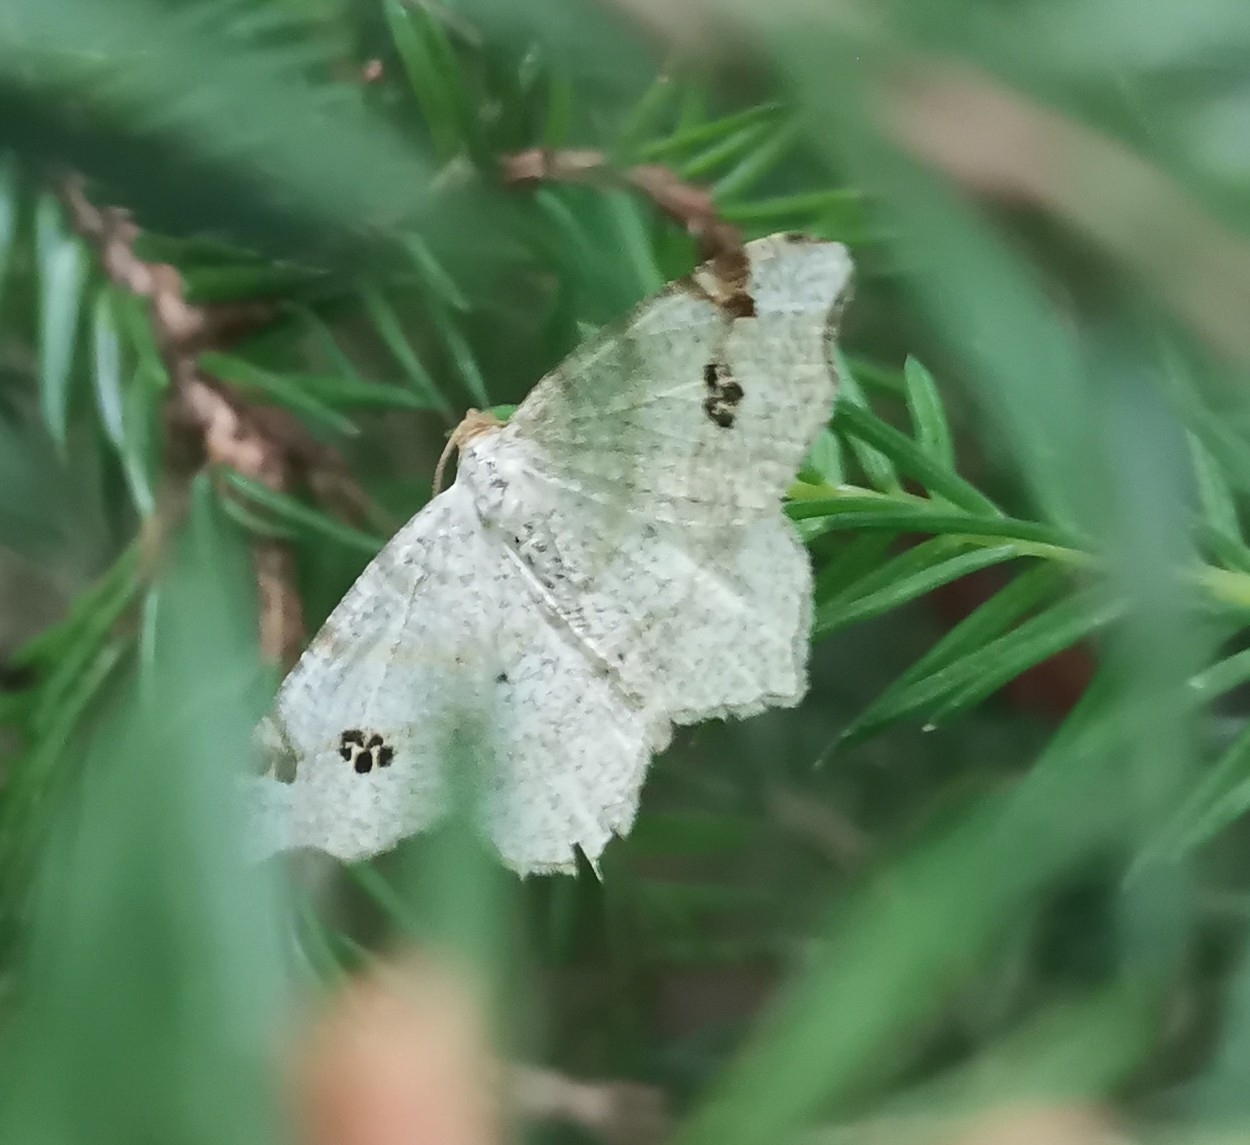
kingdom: Animalia
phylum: Arthropoda
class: Insecta
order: Lepidoptera
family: Geometridae
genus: Macaria
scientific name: Macaria notata
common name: Peacock moth
